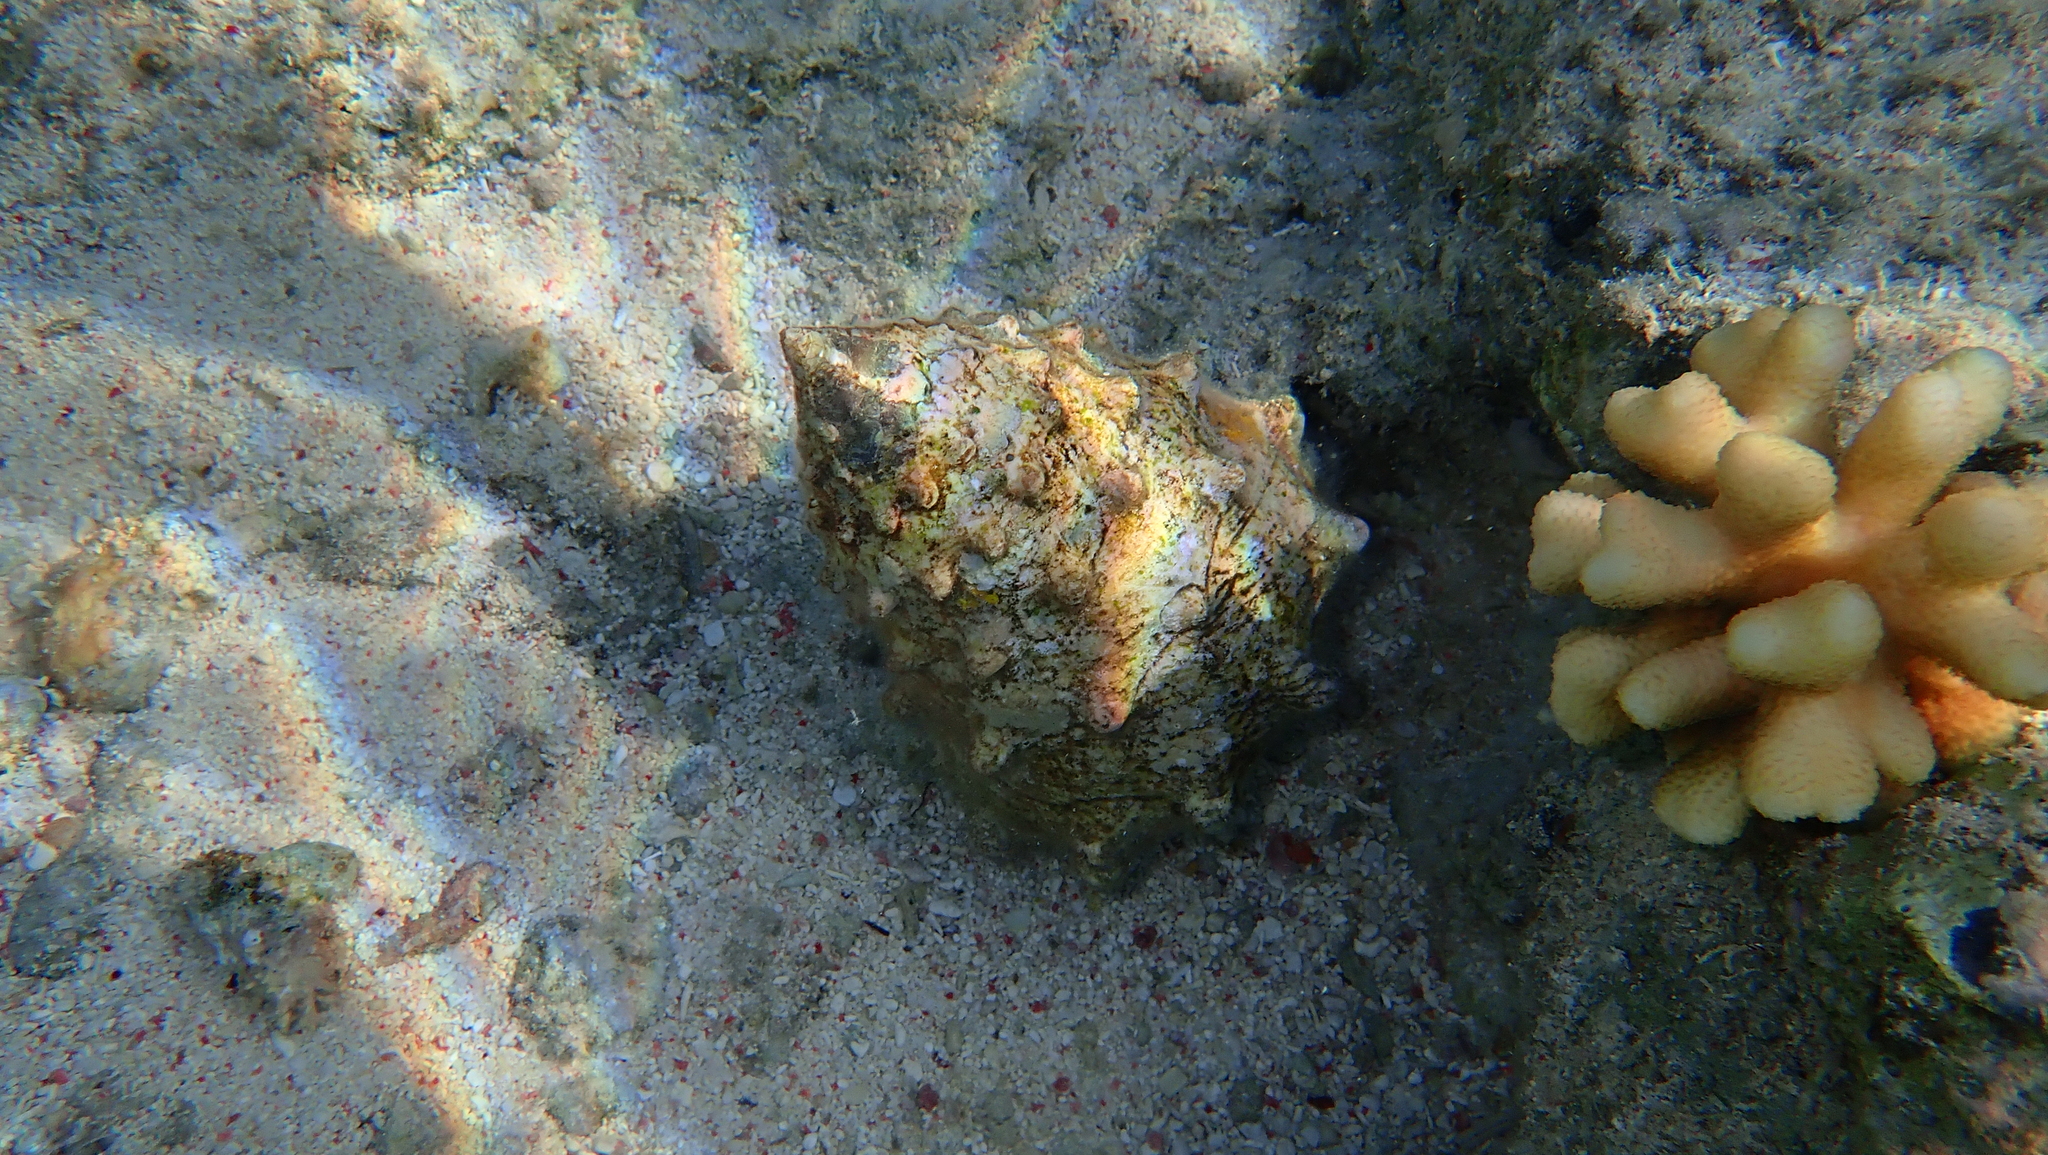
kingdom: Animalia
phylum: Mollusca
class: Gastropoda
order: Trochida
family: Tegulidae
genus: Tectus
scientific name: Tectus dentatus
